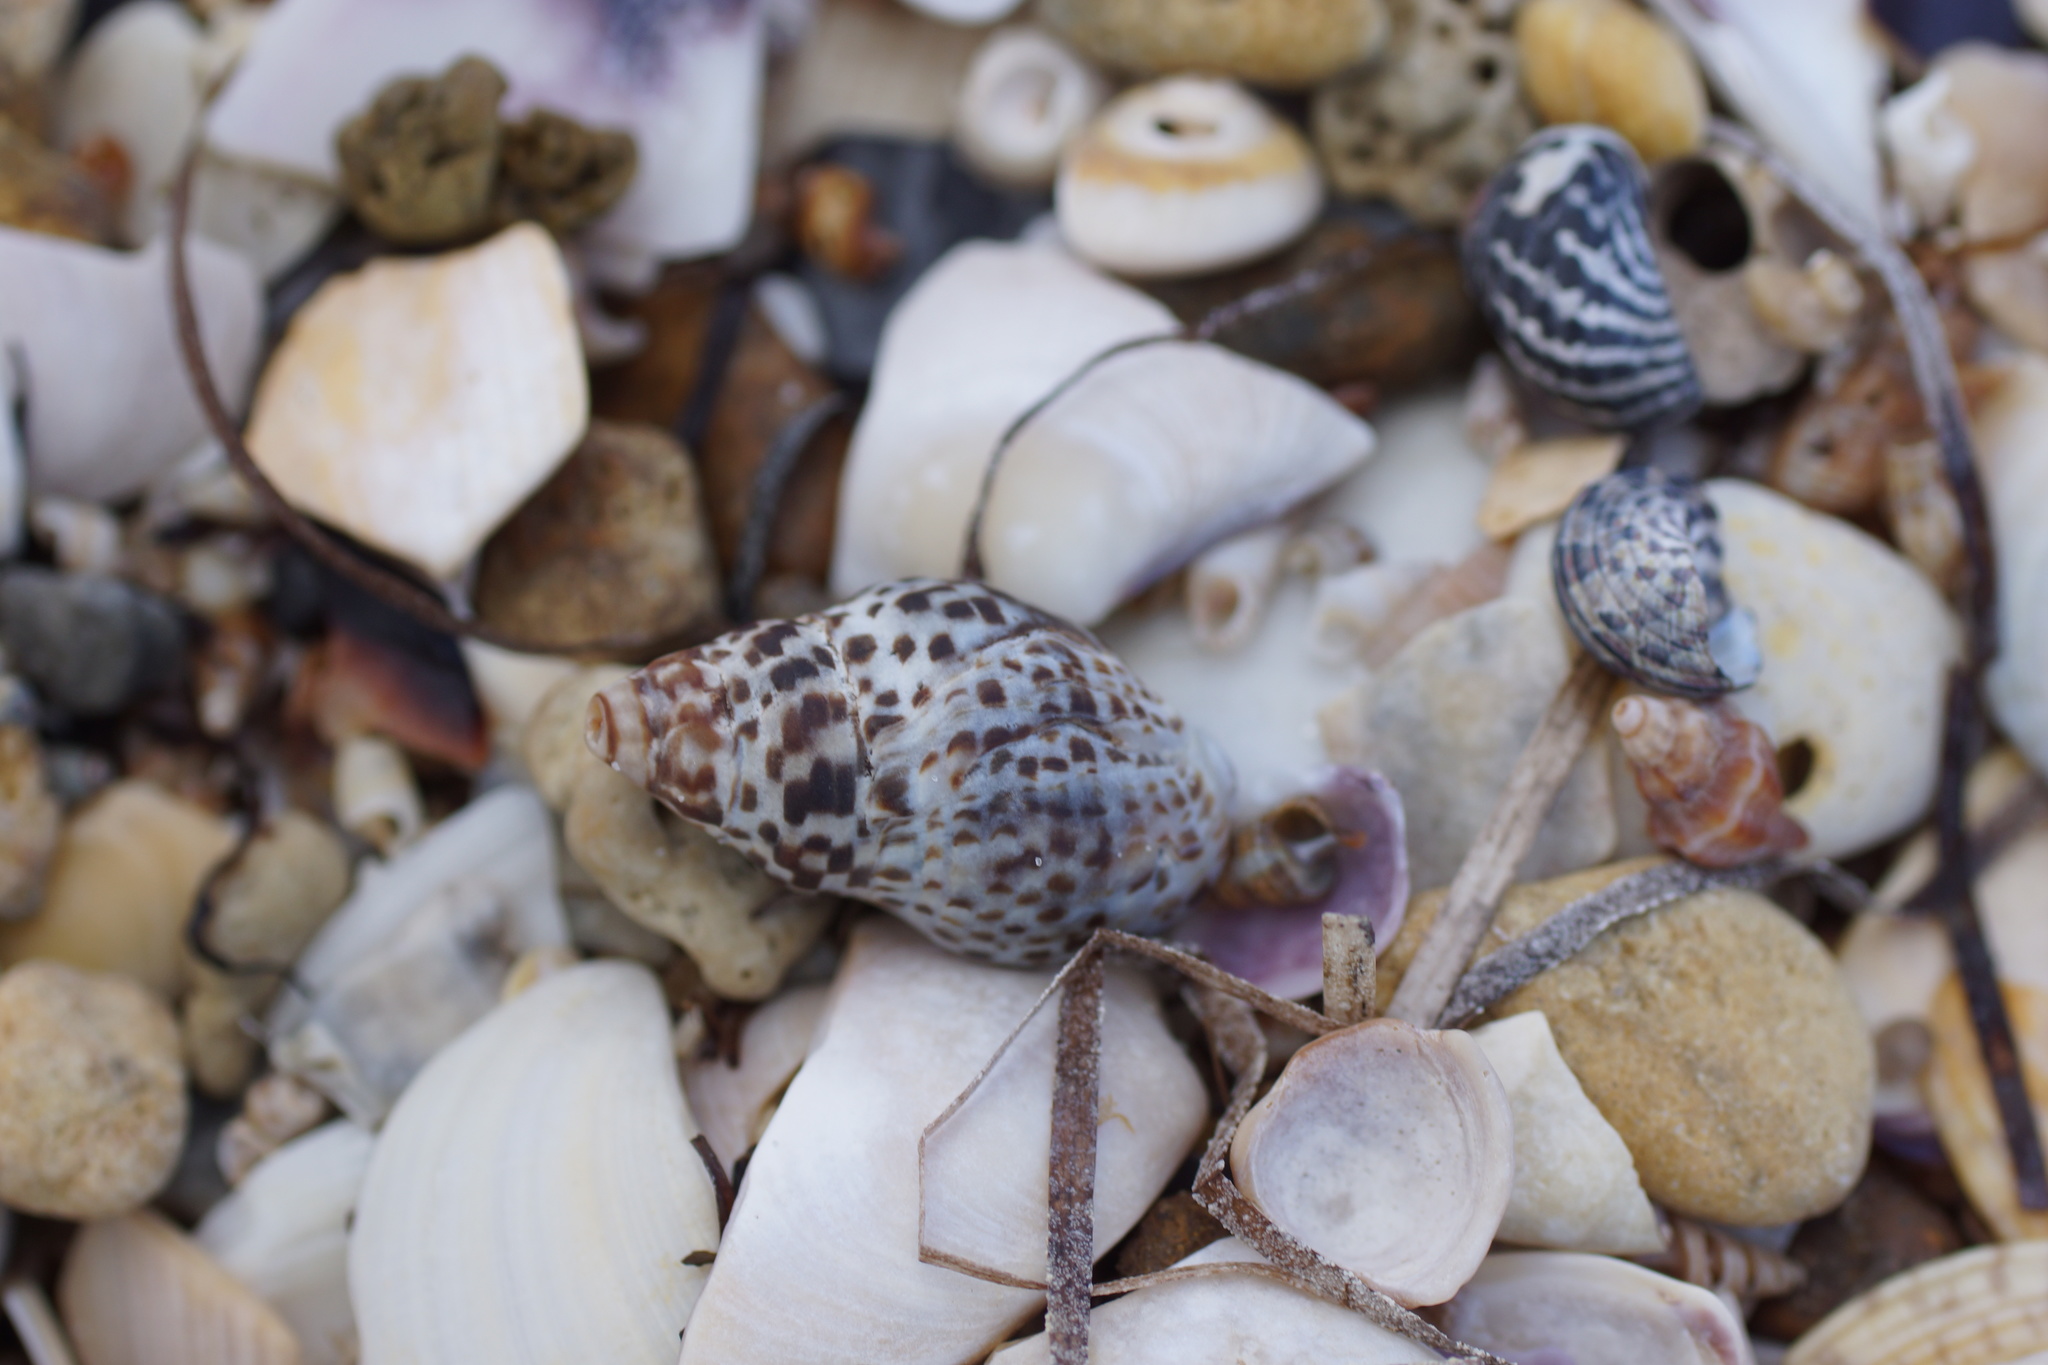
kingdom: Animalia
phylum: Mollusca
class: Gastropoda
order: Neogastropoda
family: Cominellidae
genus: Cominella
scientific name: Cominella lineolata
